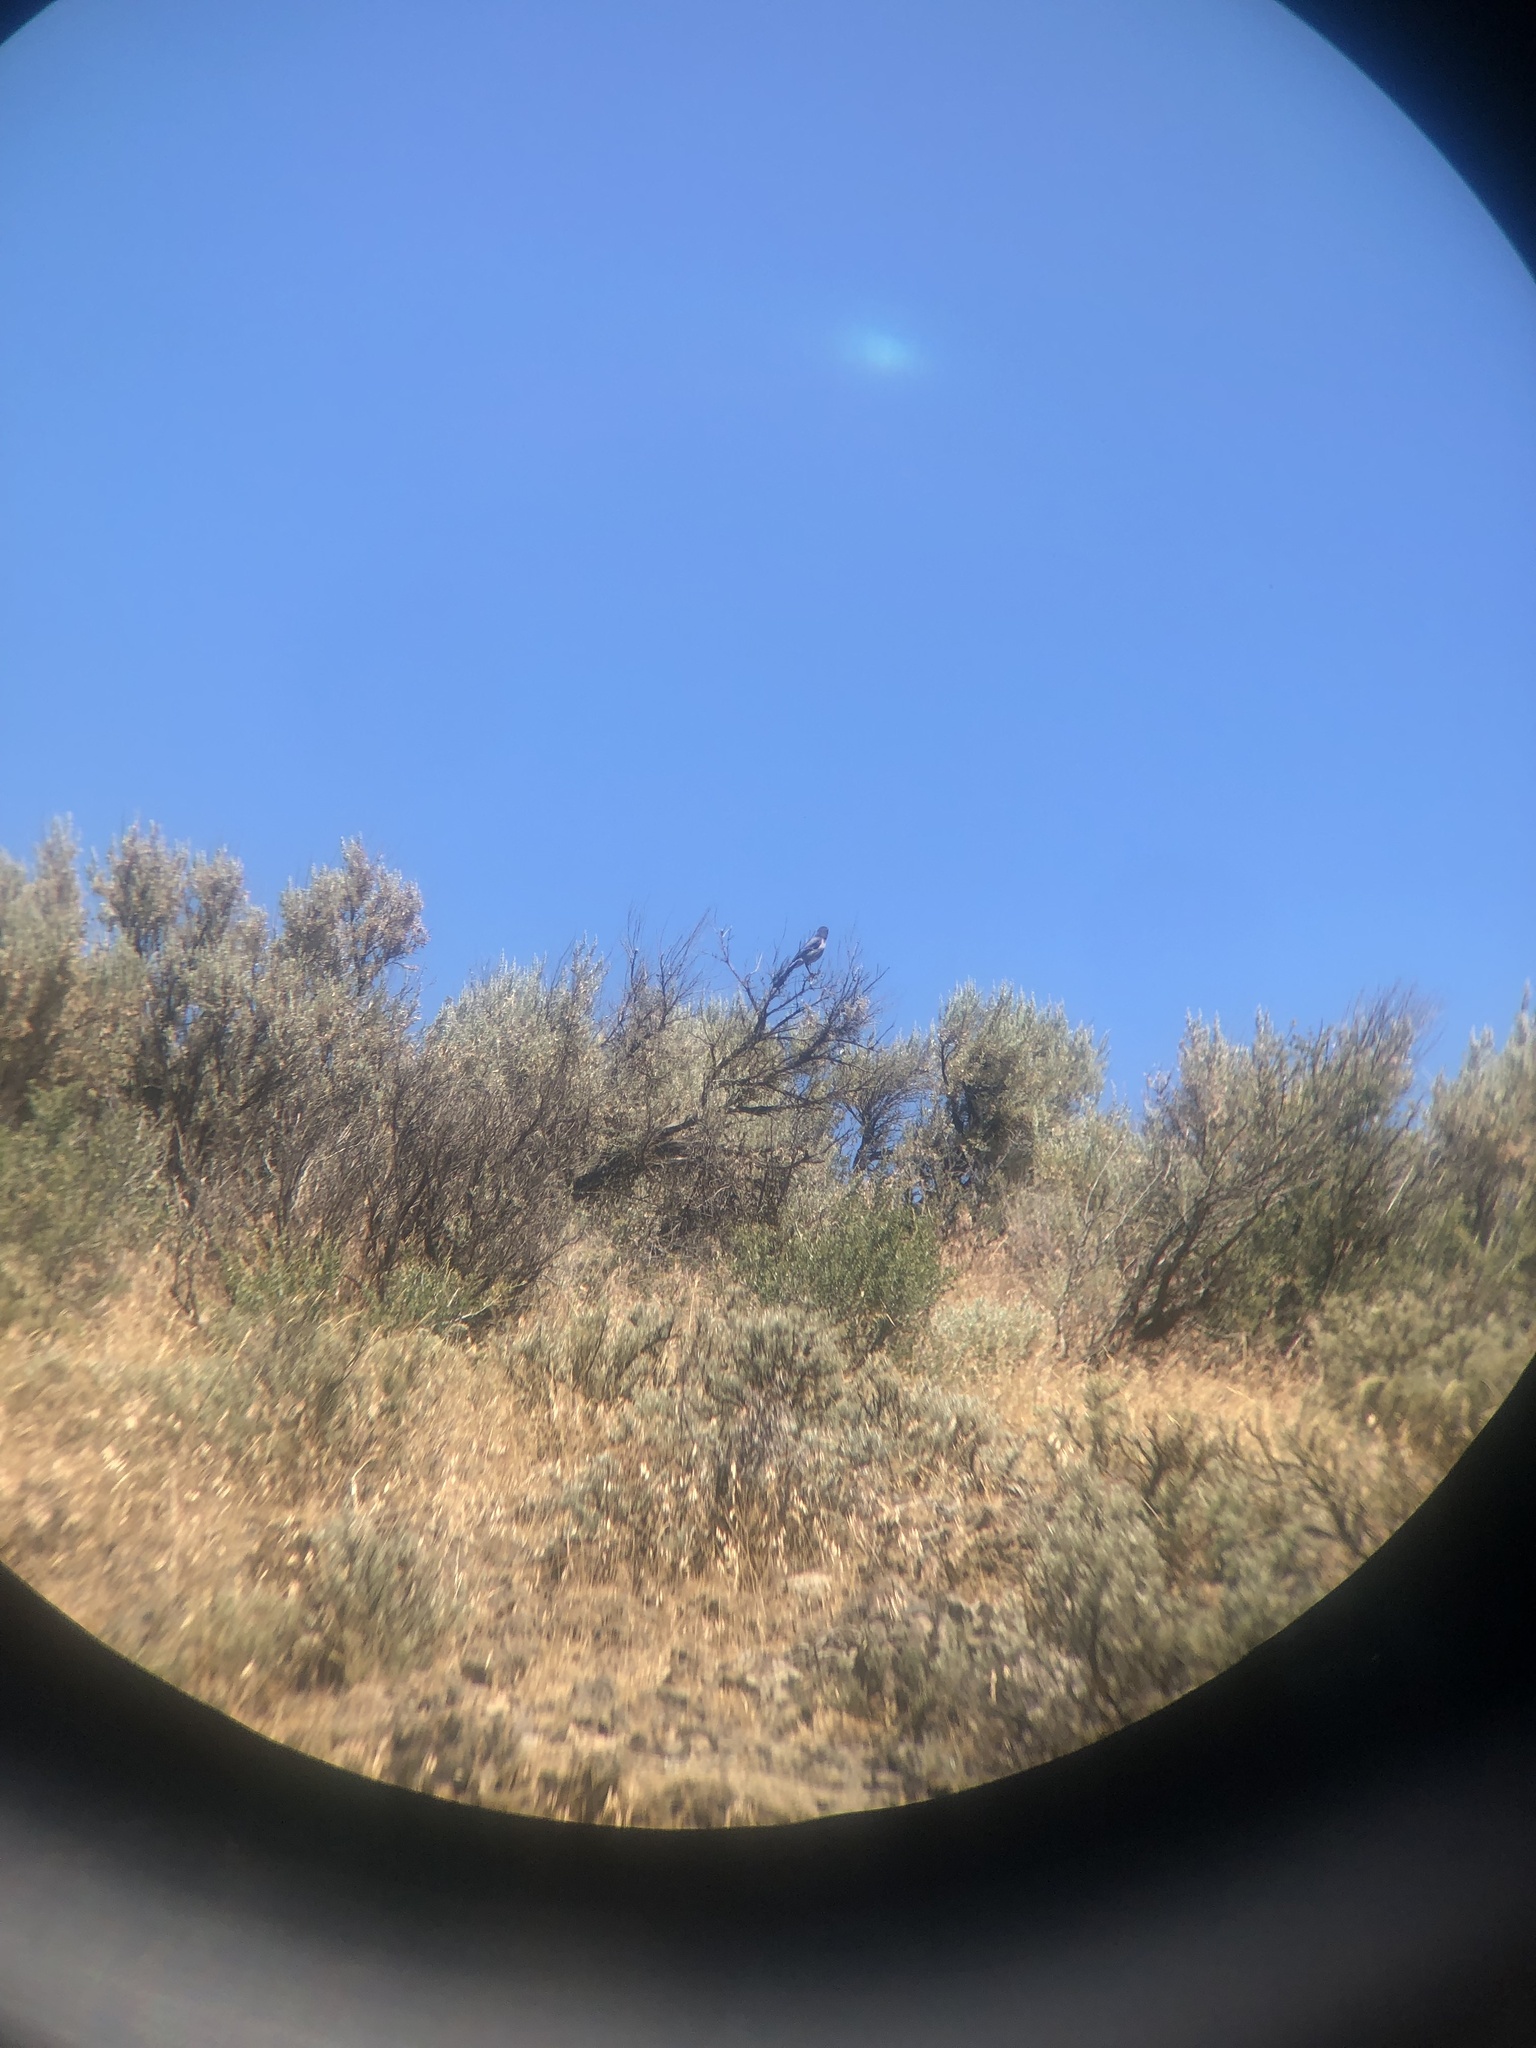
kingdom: Animalia
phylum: Chordata
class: Aves
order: Passeriformes
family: Corvidae
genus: Aphelocoma
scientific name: Aphelocoma californica
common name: California scrub-jay
